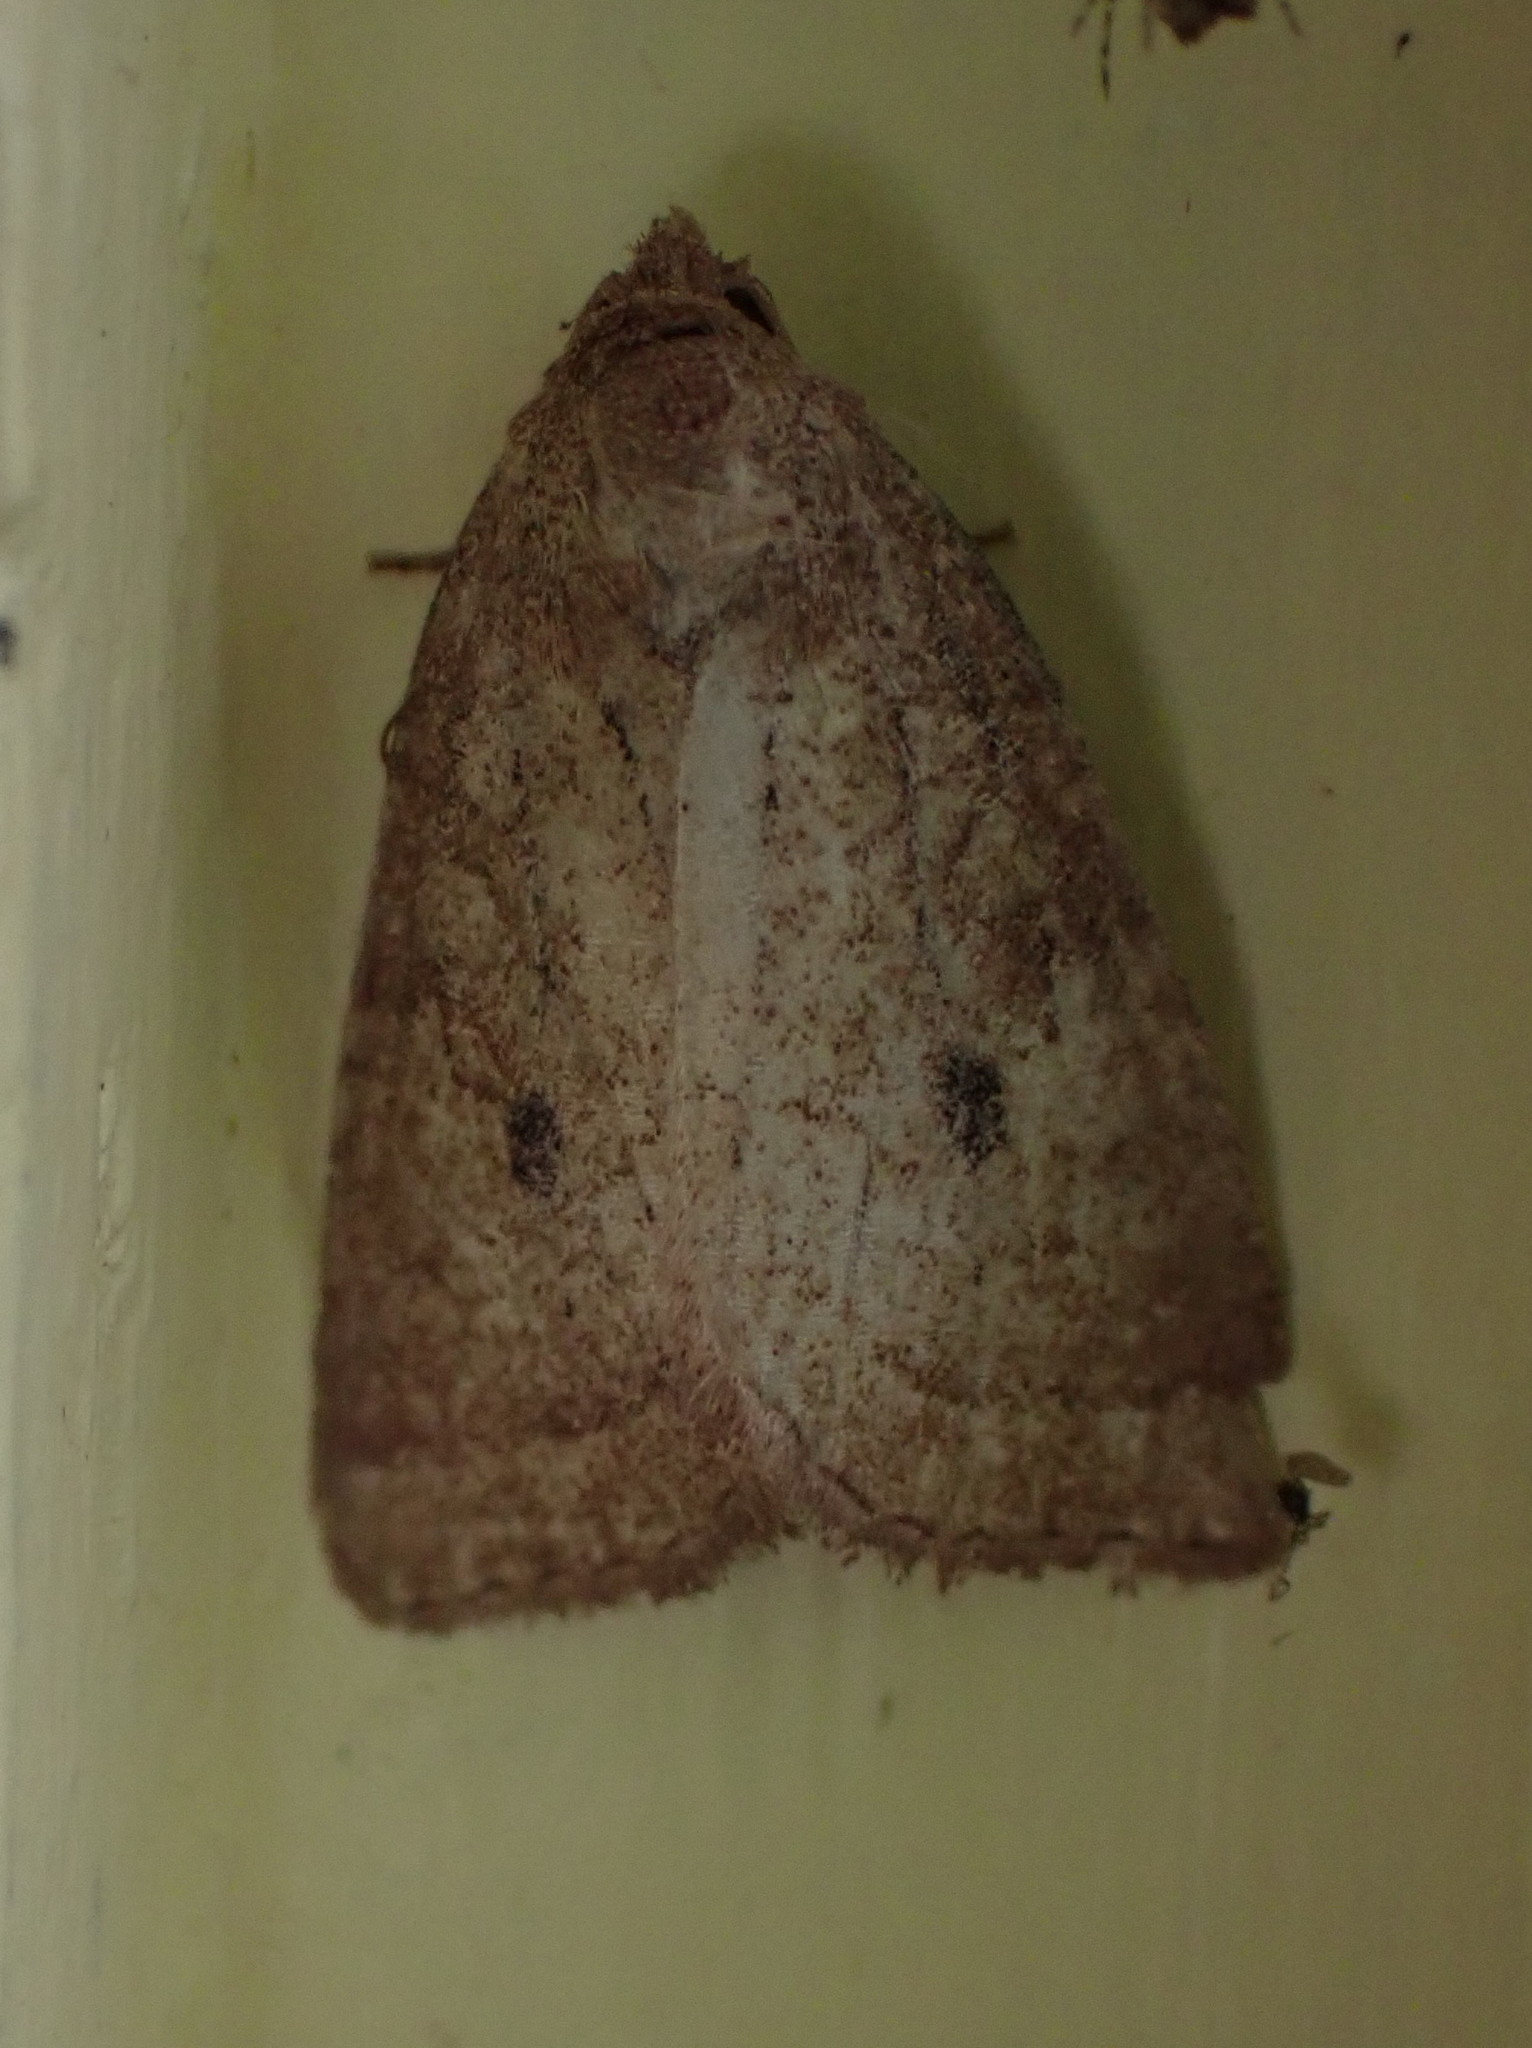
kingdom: Animalia
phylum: Arthropoda
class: Insecta
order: Lepidoptera
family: Noctuidae
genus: Photedes
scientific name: Photedes inops
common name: Spartina borer moth
